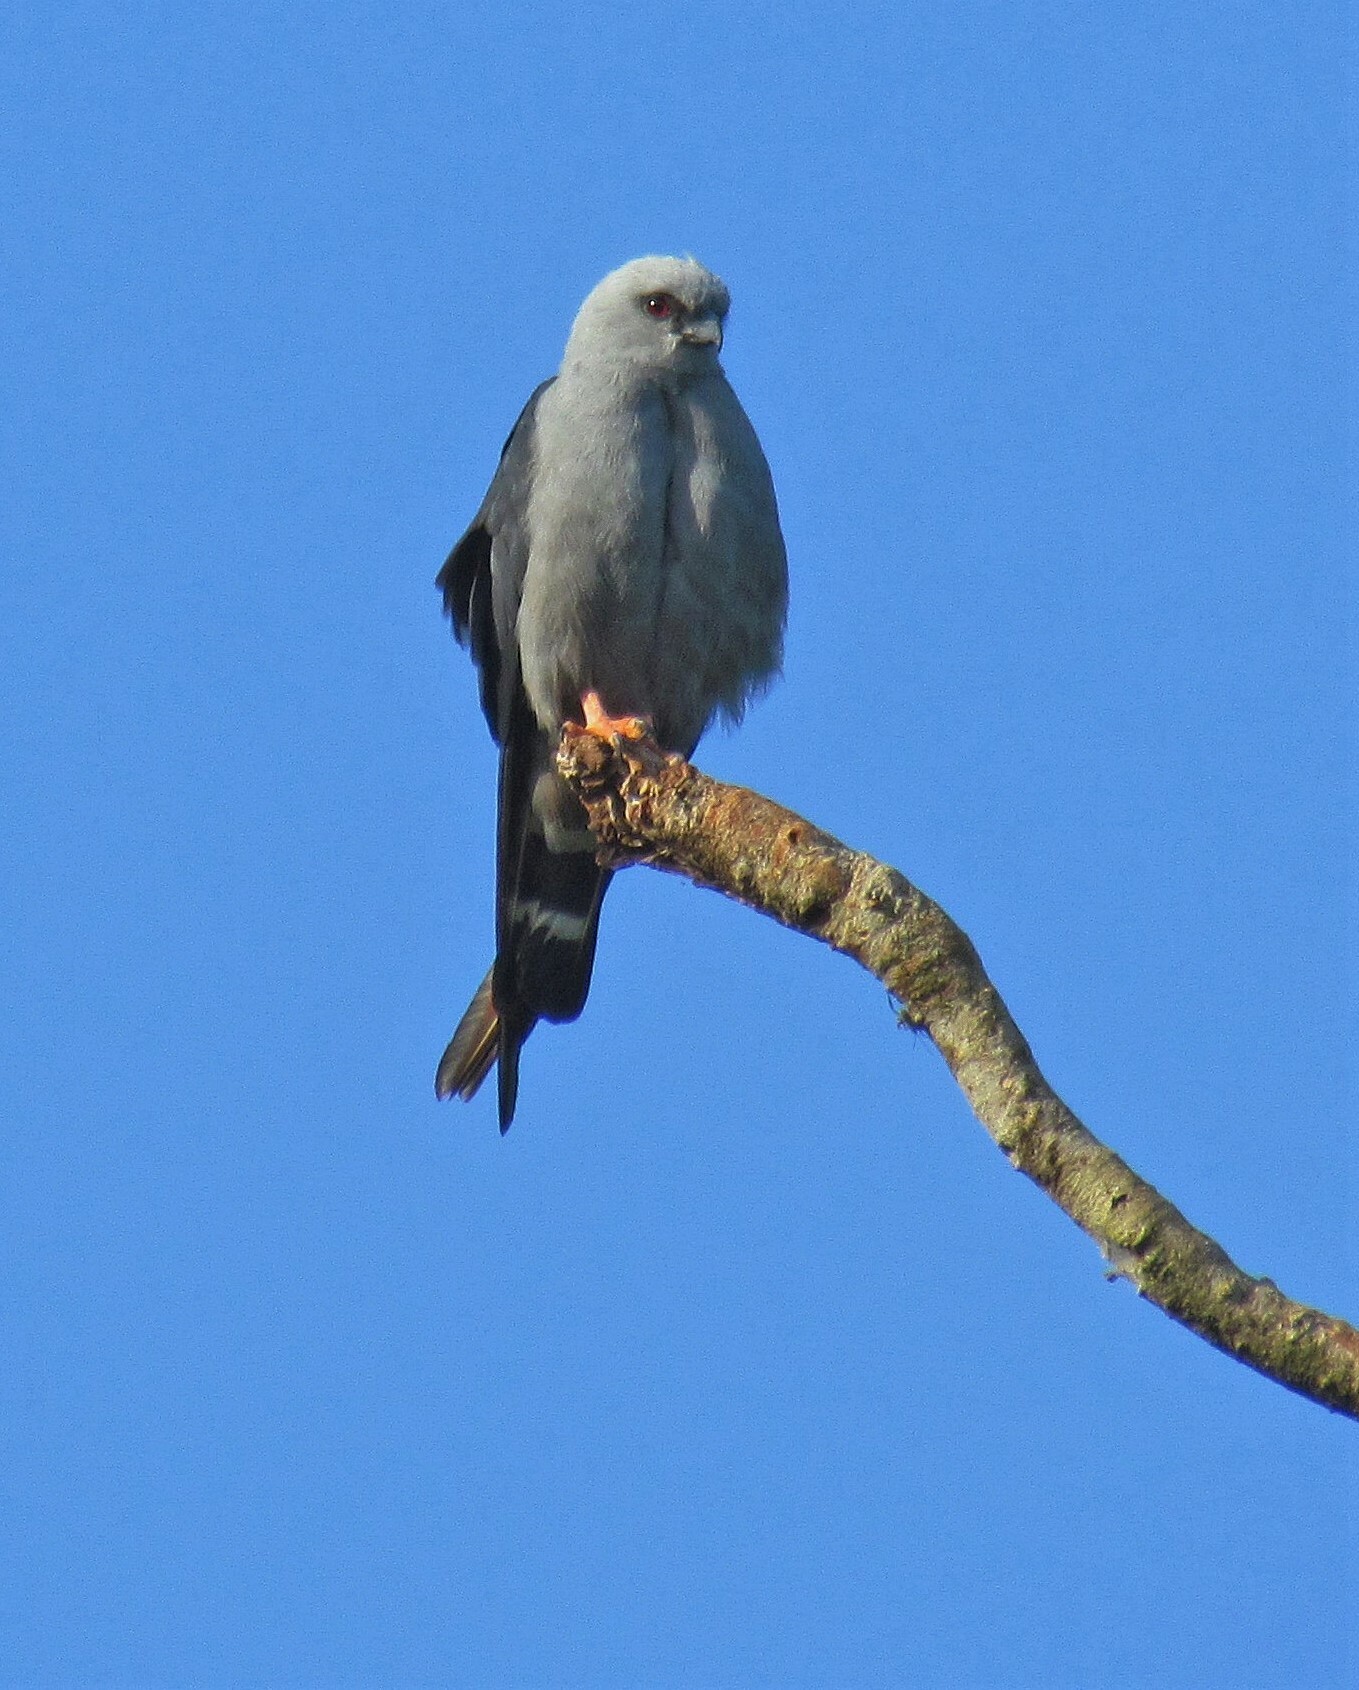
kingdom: Animalia
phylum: Chordata
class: Aves
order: Accipitriformes
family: Accipitridae
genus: Ictinia
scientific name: Ictinia plumbea
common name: Plumbeous kite
